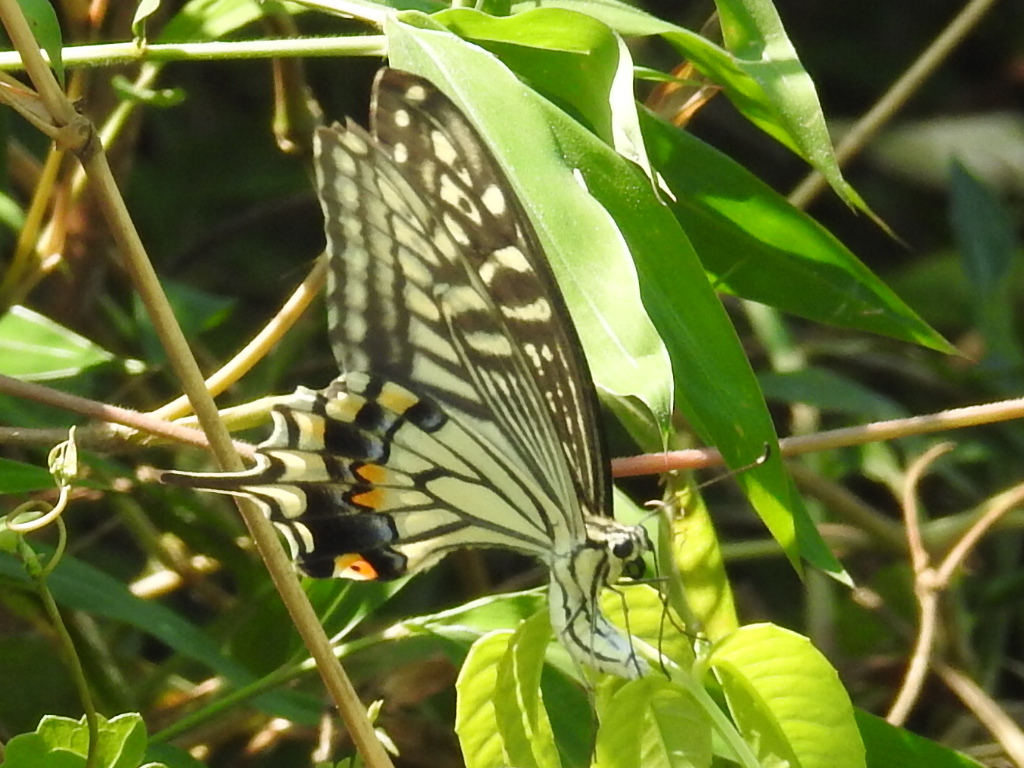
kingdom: Animalia
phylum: Arthropoda
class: Insecta
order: Lepidoptera
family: Papilionidae
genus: Papilio
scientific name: Papilio xuthus
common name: Asian swallowtail
